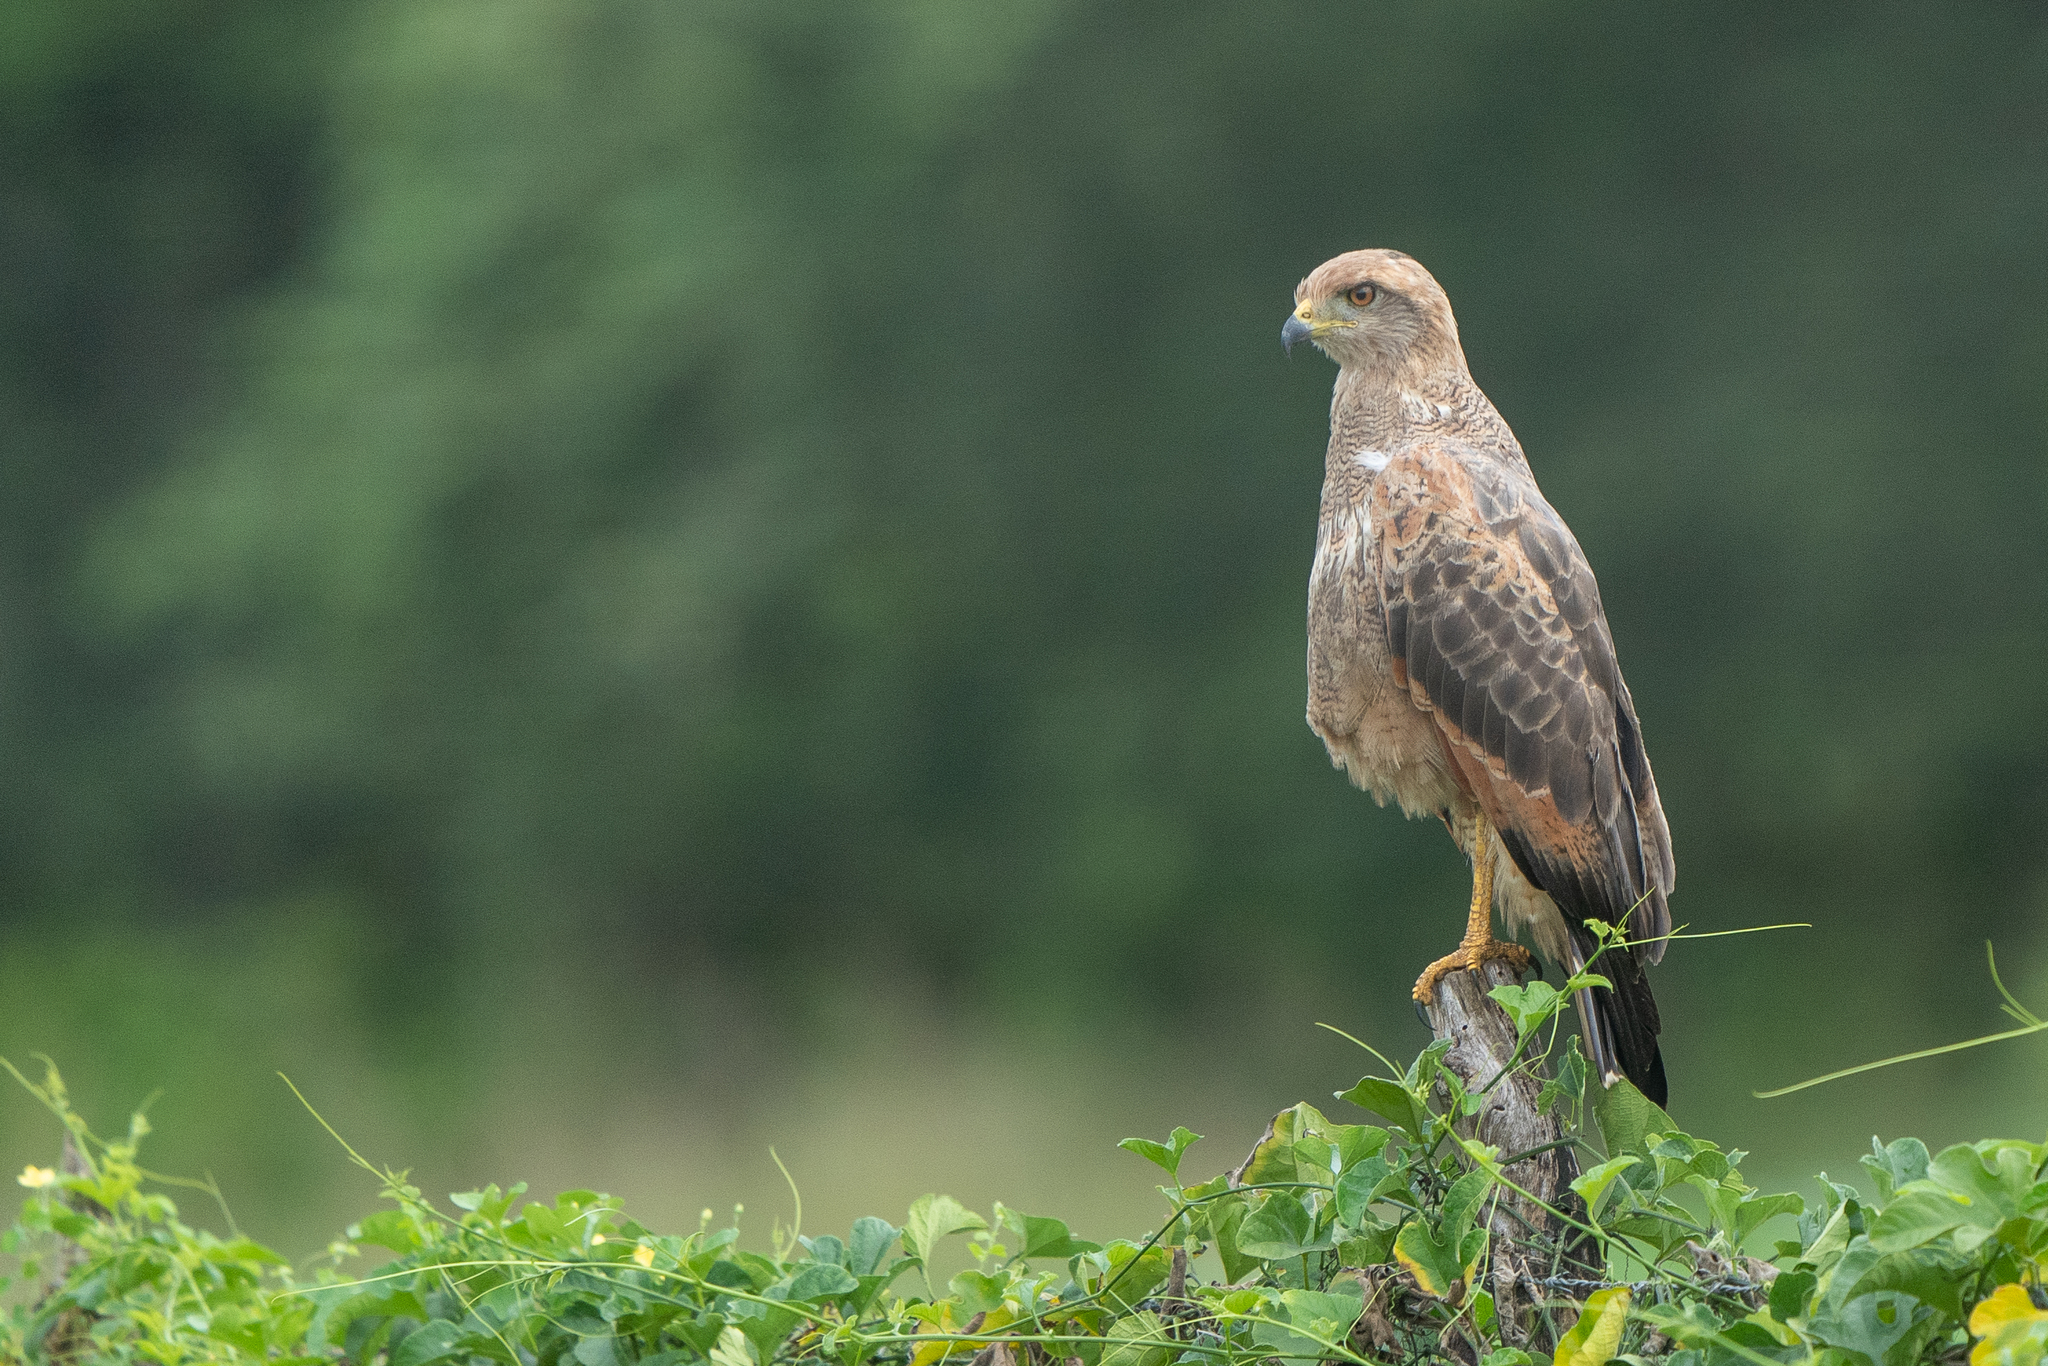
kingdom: Animalia
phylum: Chordata
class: Aves
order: Accipitriformes
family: Accipitridae
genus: Buteogallus
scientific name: Buteogallus meridionalis
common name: Savanna hawk
